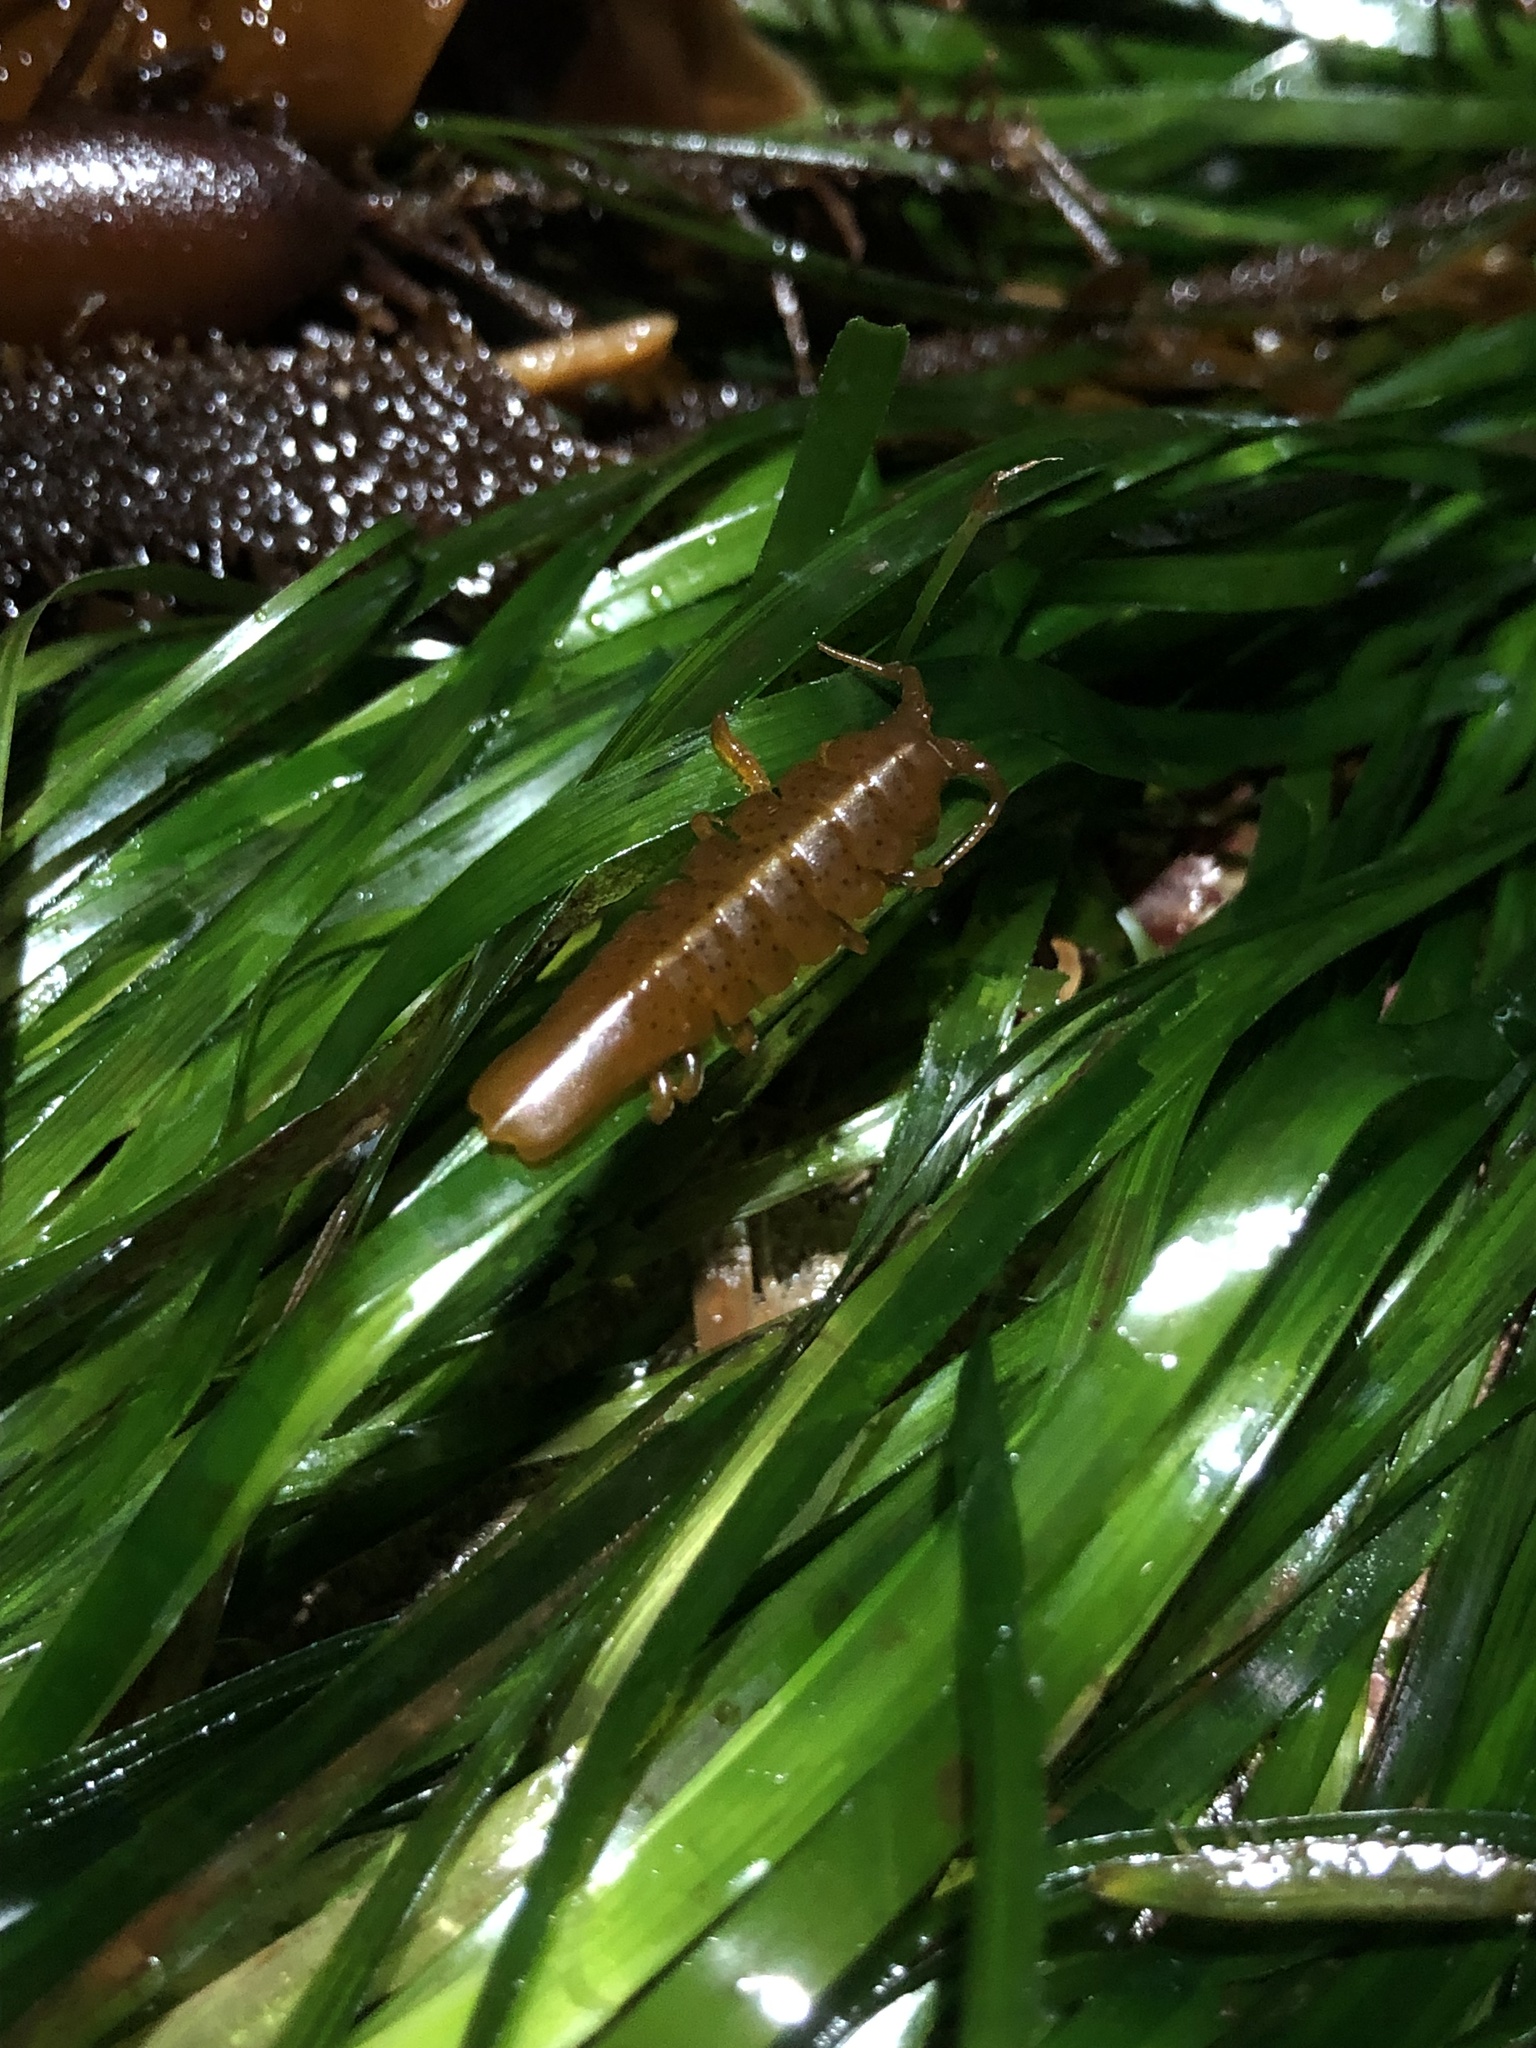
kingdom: Animalia
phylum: Arthropoda
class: Malacostraca
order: Isopoda
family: Idoteidae
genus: Pentidotea
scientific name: Pentidotea stenops
